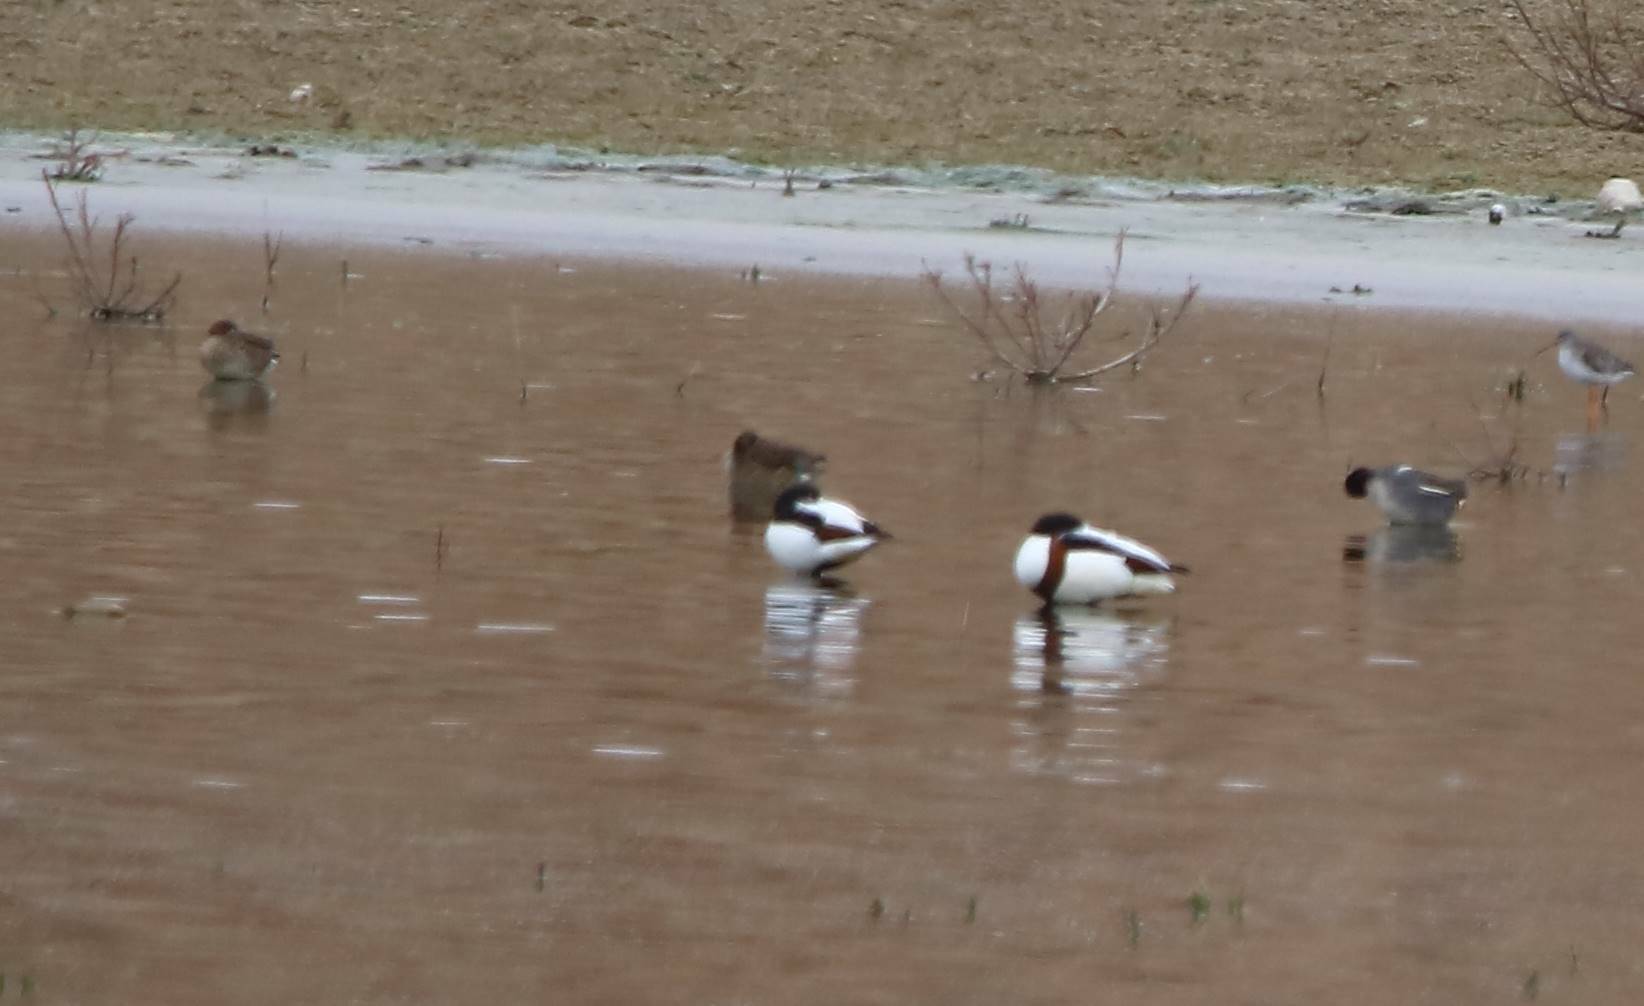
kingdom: Animalia
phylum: Chordata
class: Aves
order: Anseriformes
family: Anatidae
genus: Tadorna
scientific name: Tadorna tadorna
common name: Common shelduck
